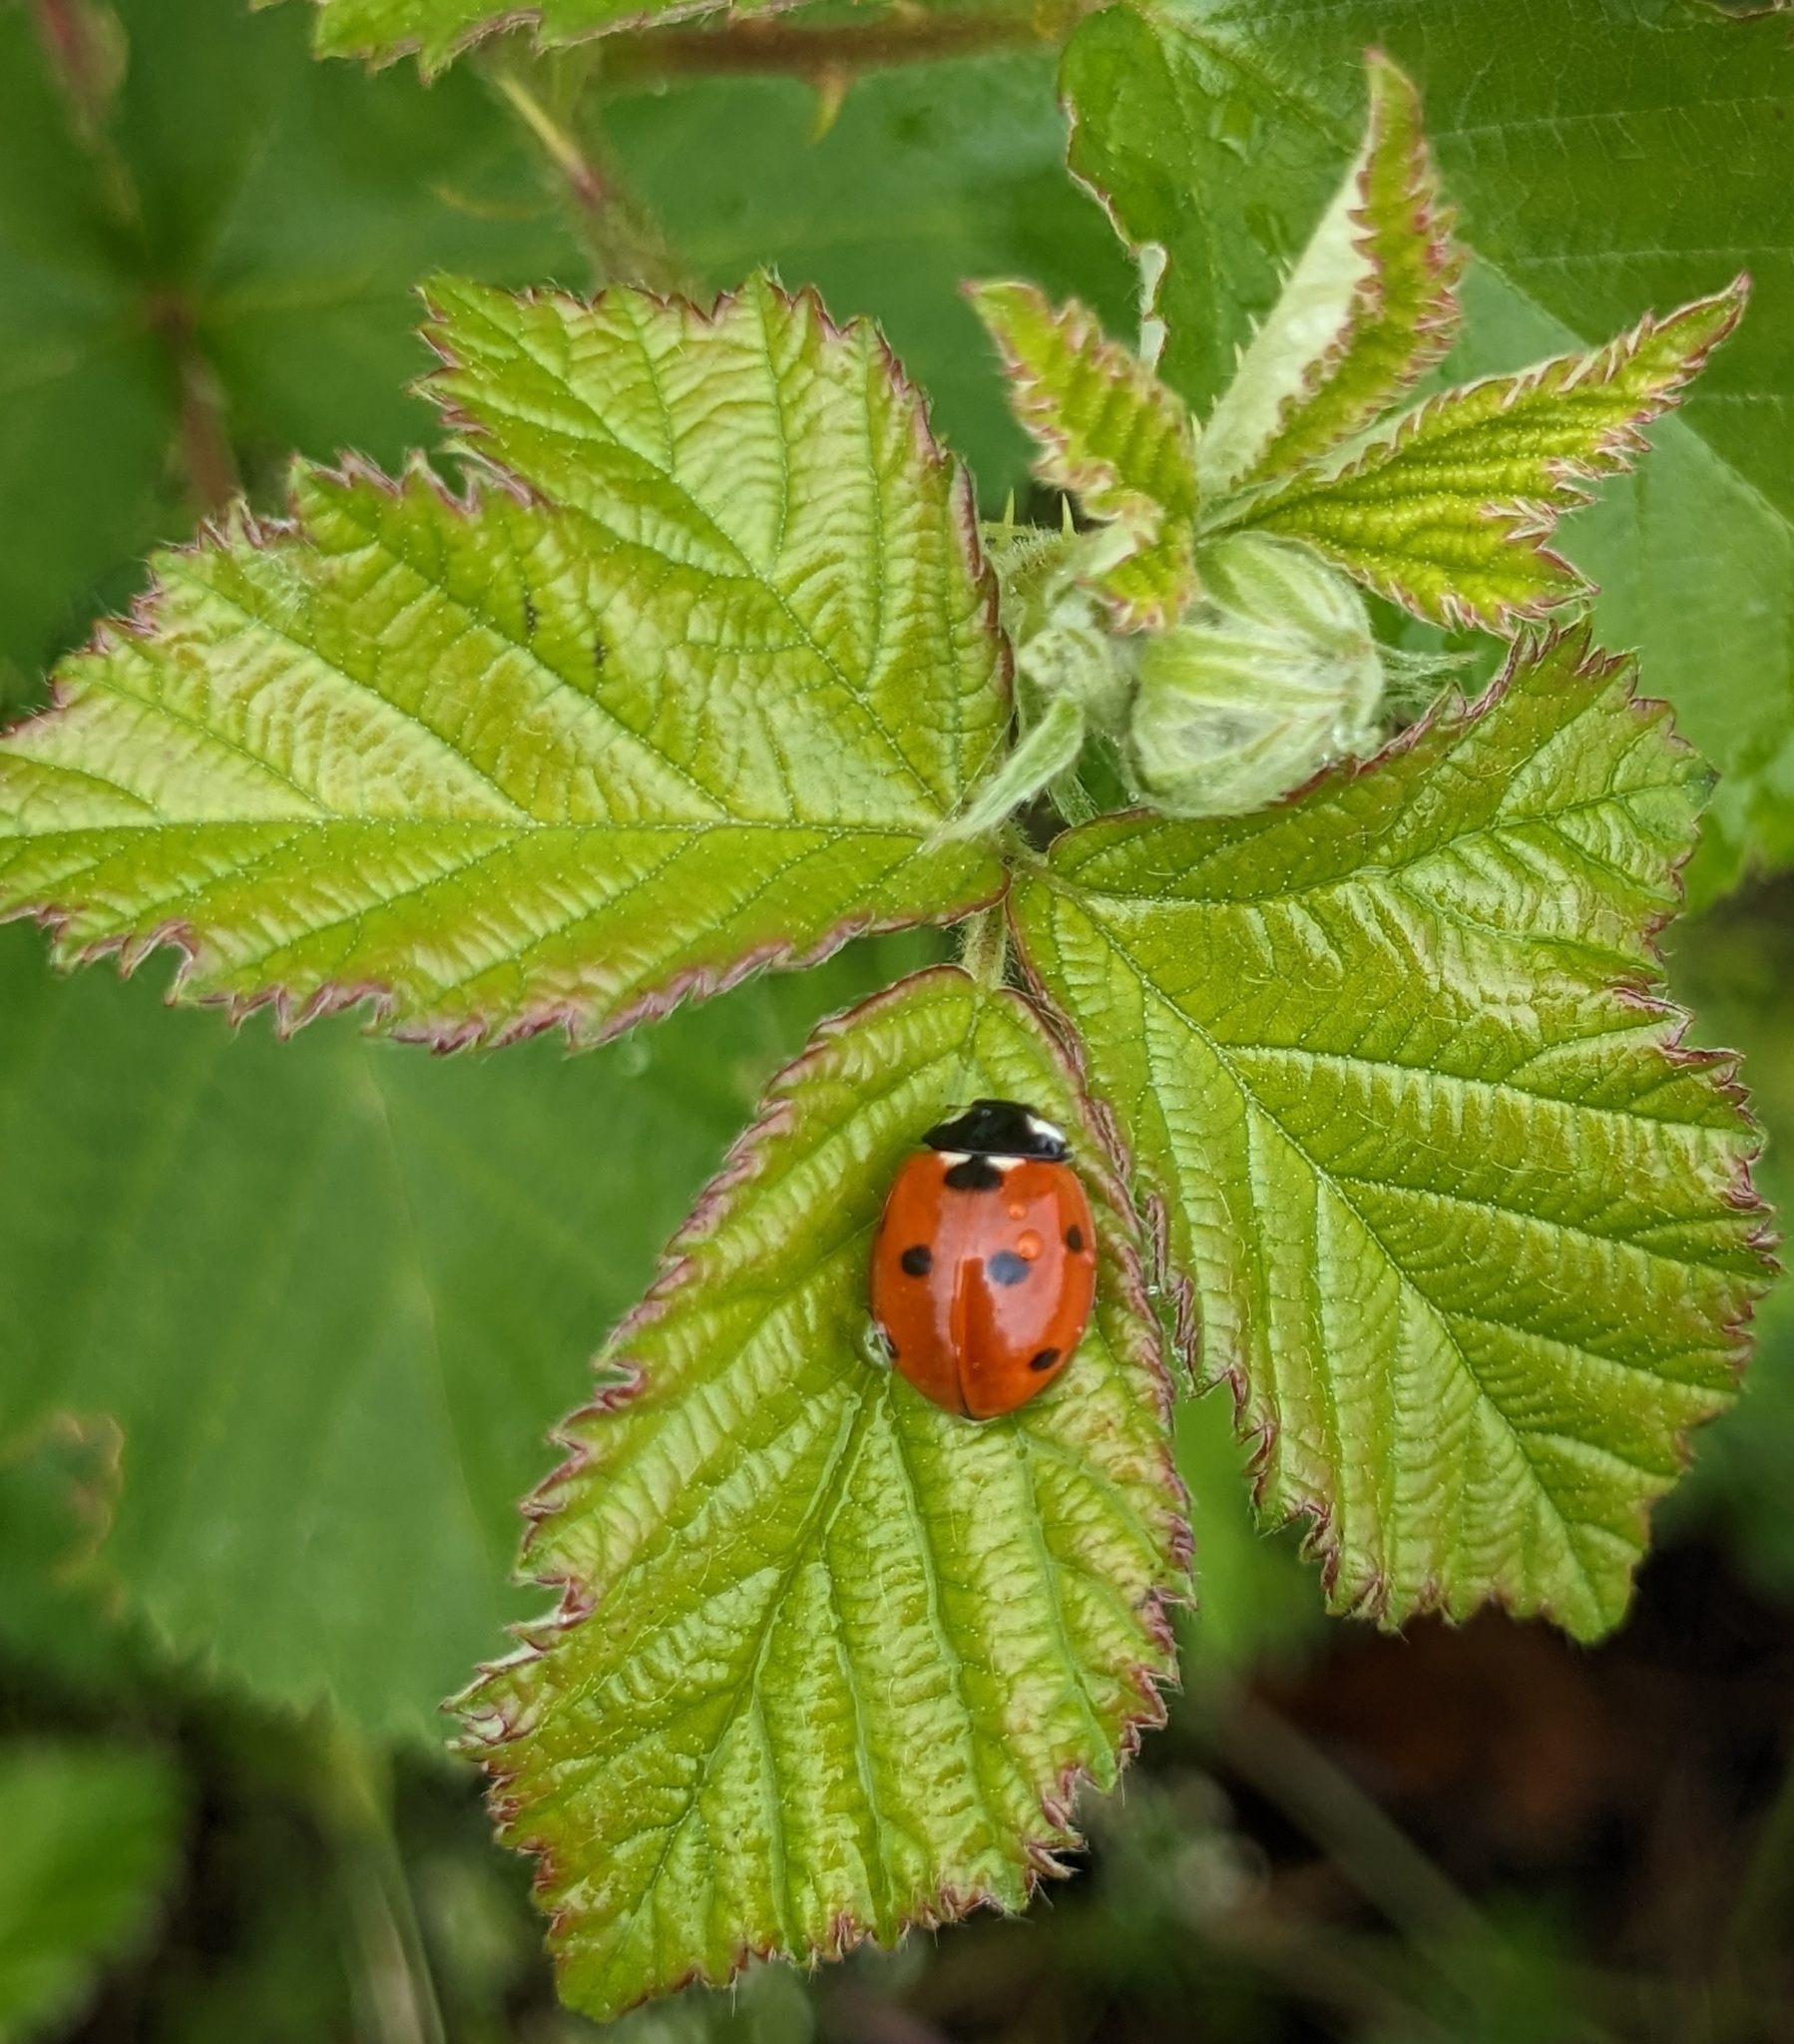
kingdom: Animalia
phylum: Arthropoda
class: Insecta
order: Coleoptera
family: Coccinellidae
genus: Coccinella
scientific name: Coccinella septempunctata
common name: Sevenspotted lady beetle
